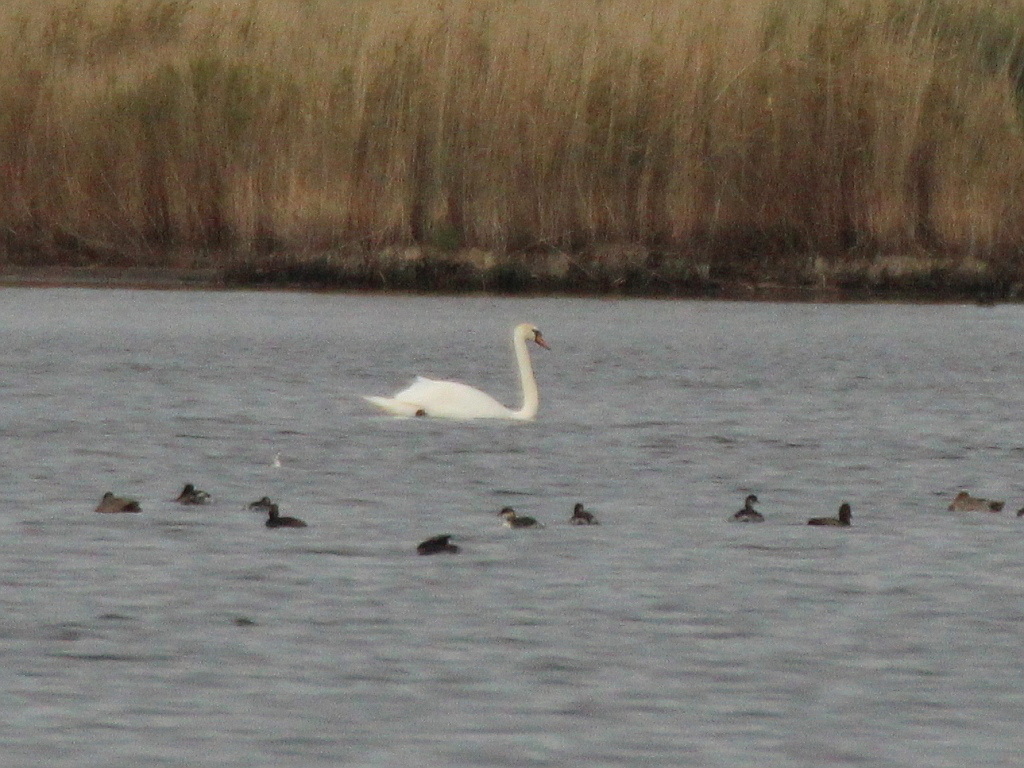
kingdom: Animalia
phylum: Chordata
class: Aves
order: Anseriformes
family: Anatidae
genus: Cygnus
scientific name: Cygnus olor
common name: Mute swan
